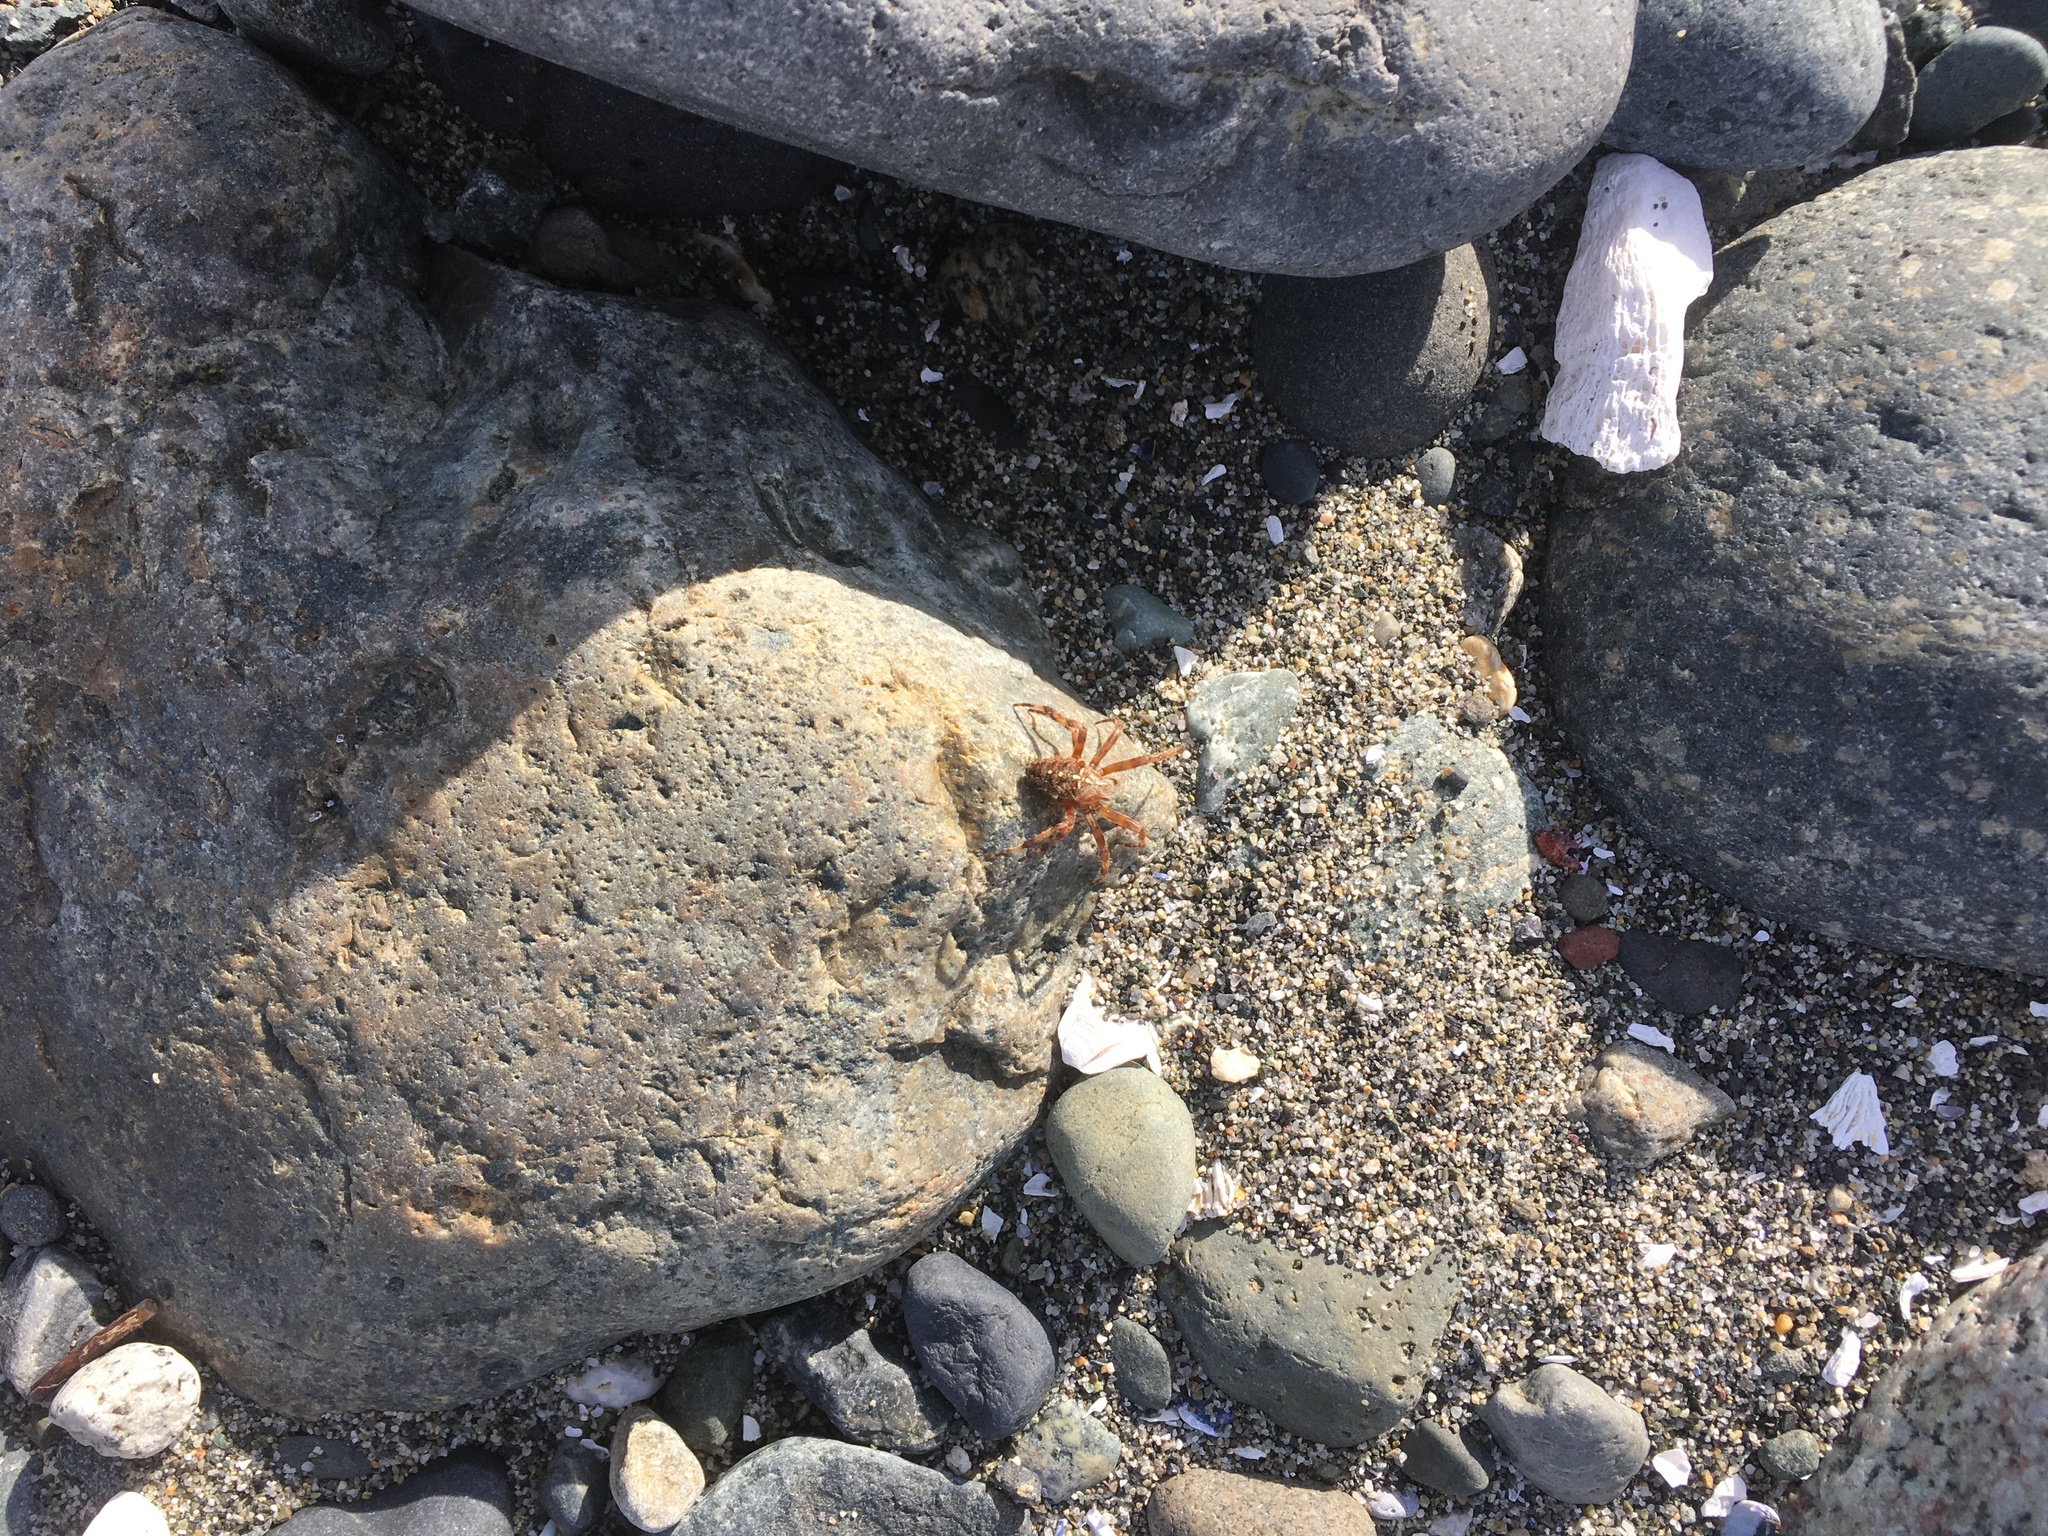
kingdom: Animalia
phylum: Arthropoda
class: Arachnida
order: Araneae
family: Araneidae
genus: Araneus
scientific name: Araneus diadematus
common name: Cross orbweaver
